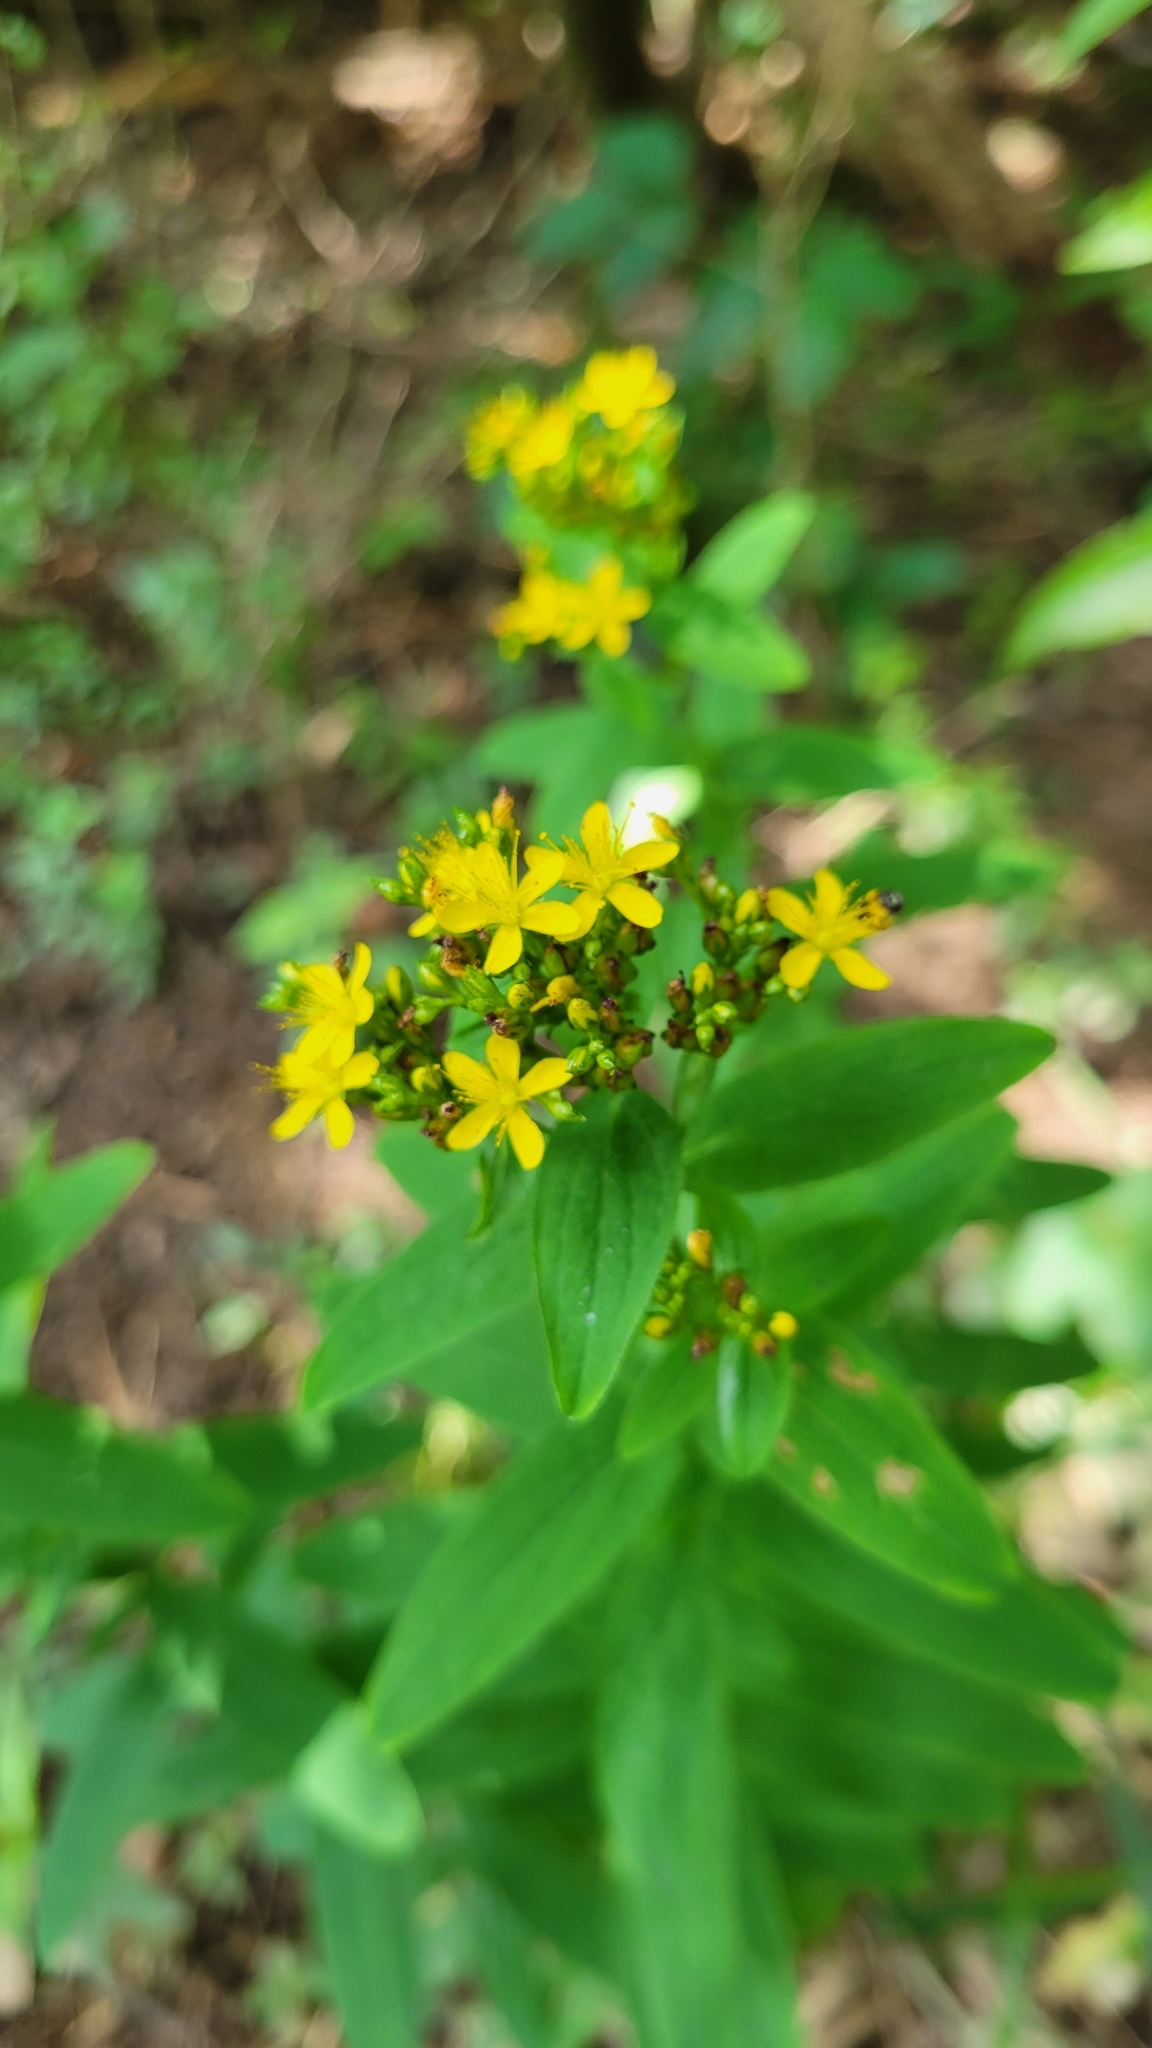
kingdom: Plantae
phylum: Tracheophyta
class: Magnoliopsida
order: Malpighiales
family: Hypericaceae
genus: Hypericum
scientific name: Hypericum punctatum
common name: Spotted st. john's-wort
